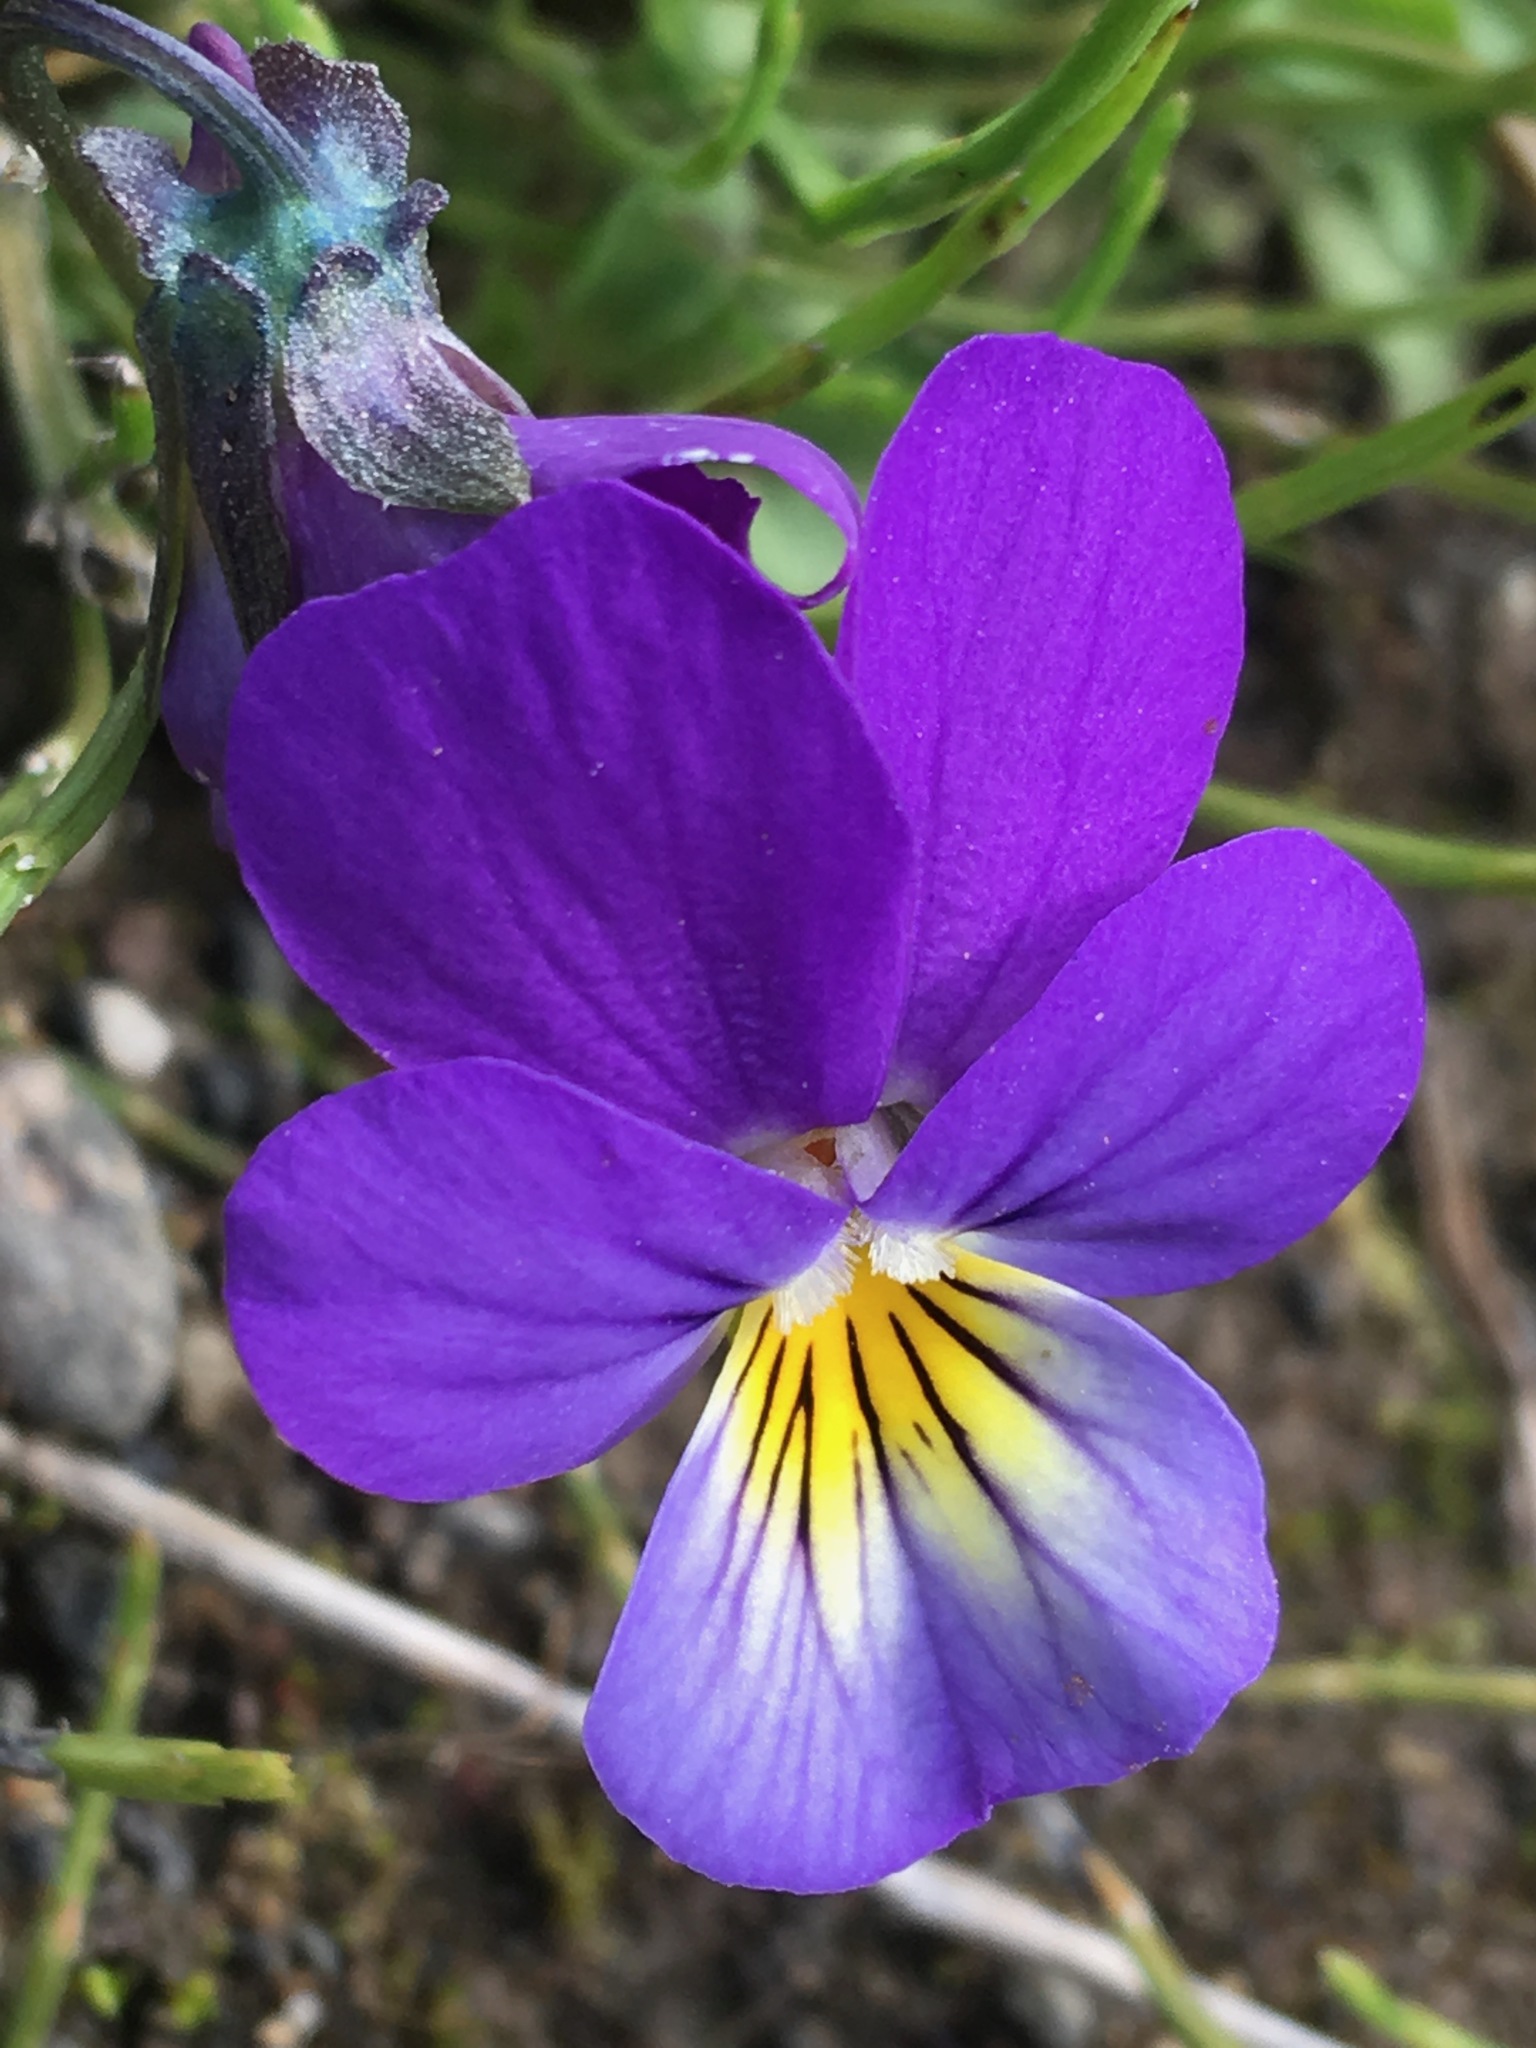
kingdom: Plantae
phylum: Tracheophyta
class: Magnoliopsida
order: Malpighiales
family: Violaceae
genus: Viola
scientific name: Viola tricolor
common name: Pansy
